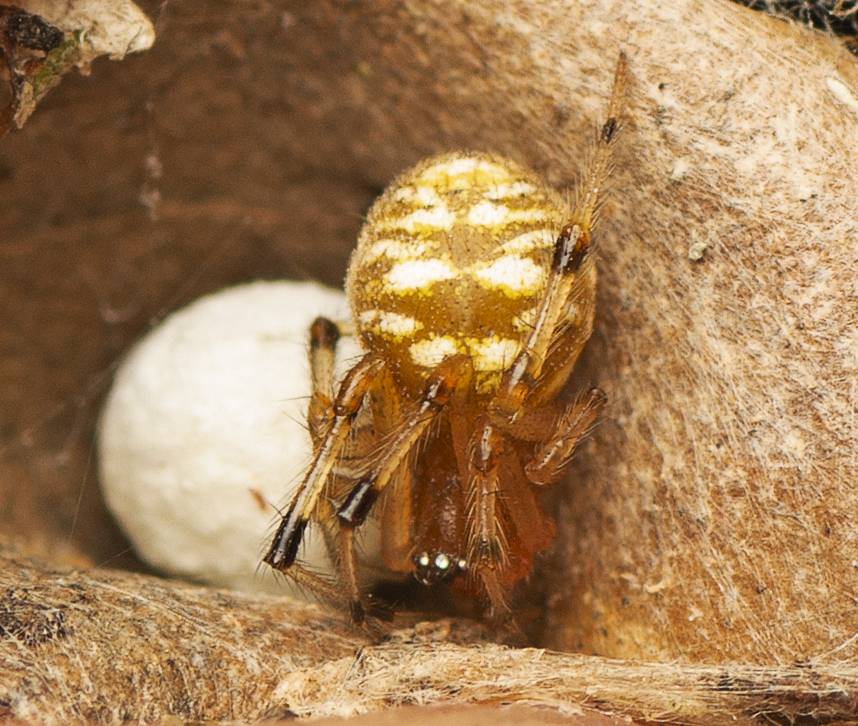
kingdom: Animalia
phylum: Arthropoda
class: Arachnida
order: Araneae
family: Theridiidae
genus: Theridion
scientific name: Theridion ventricosum
